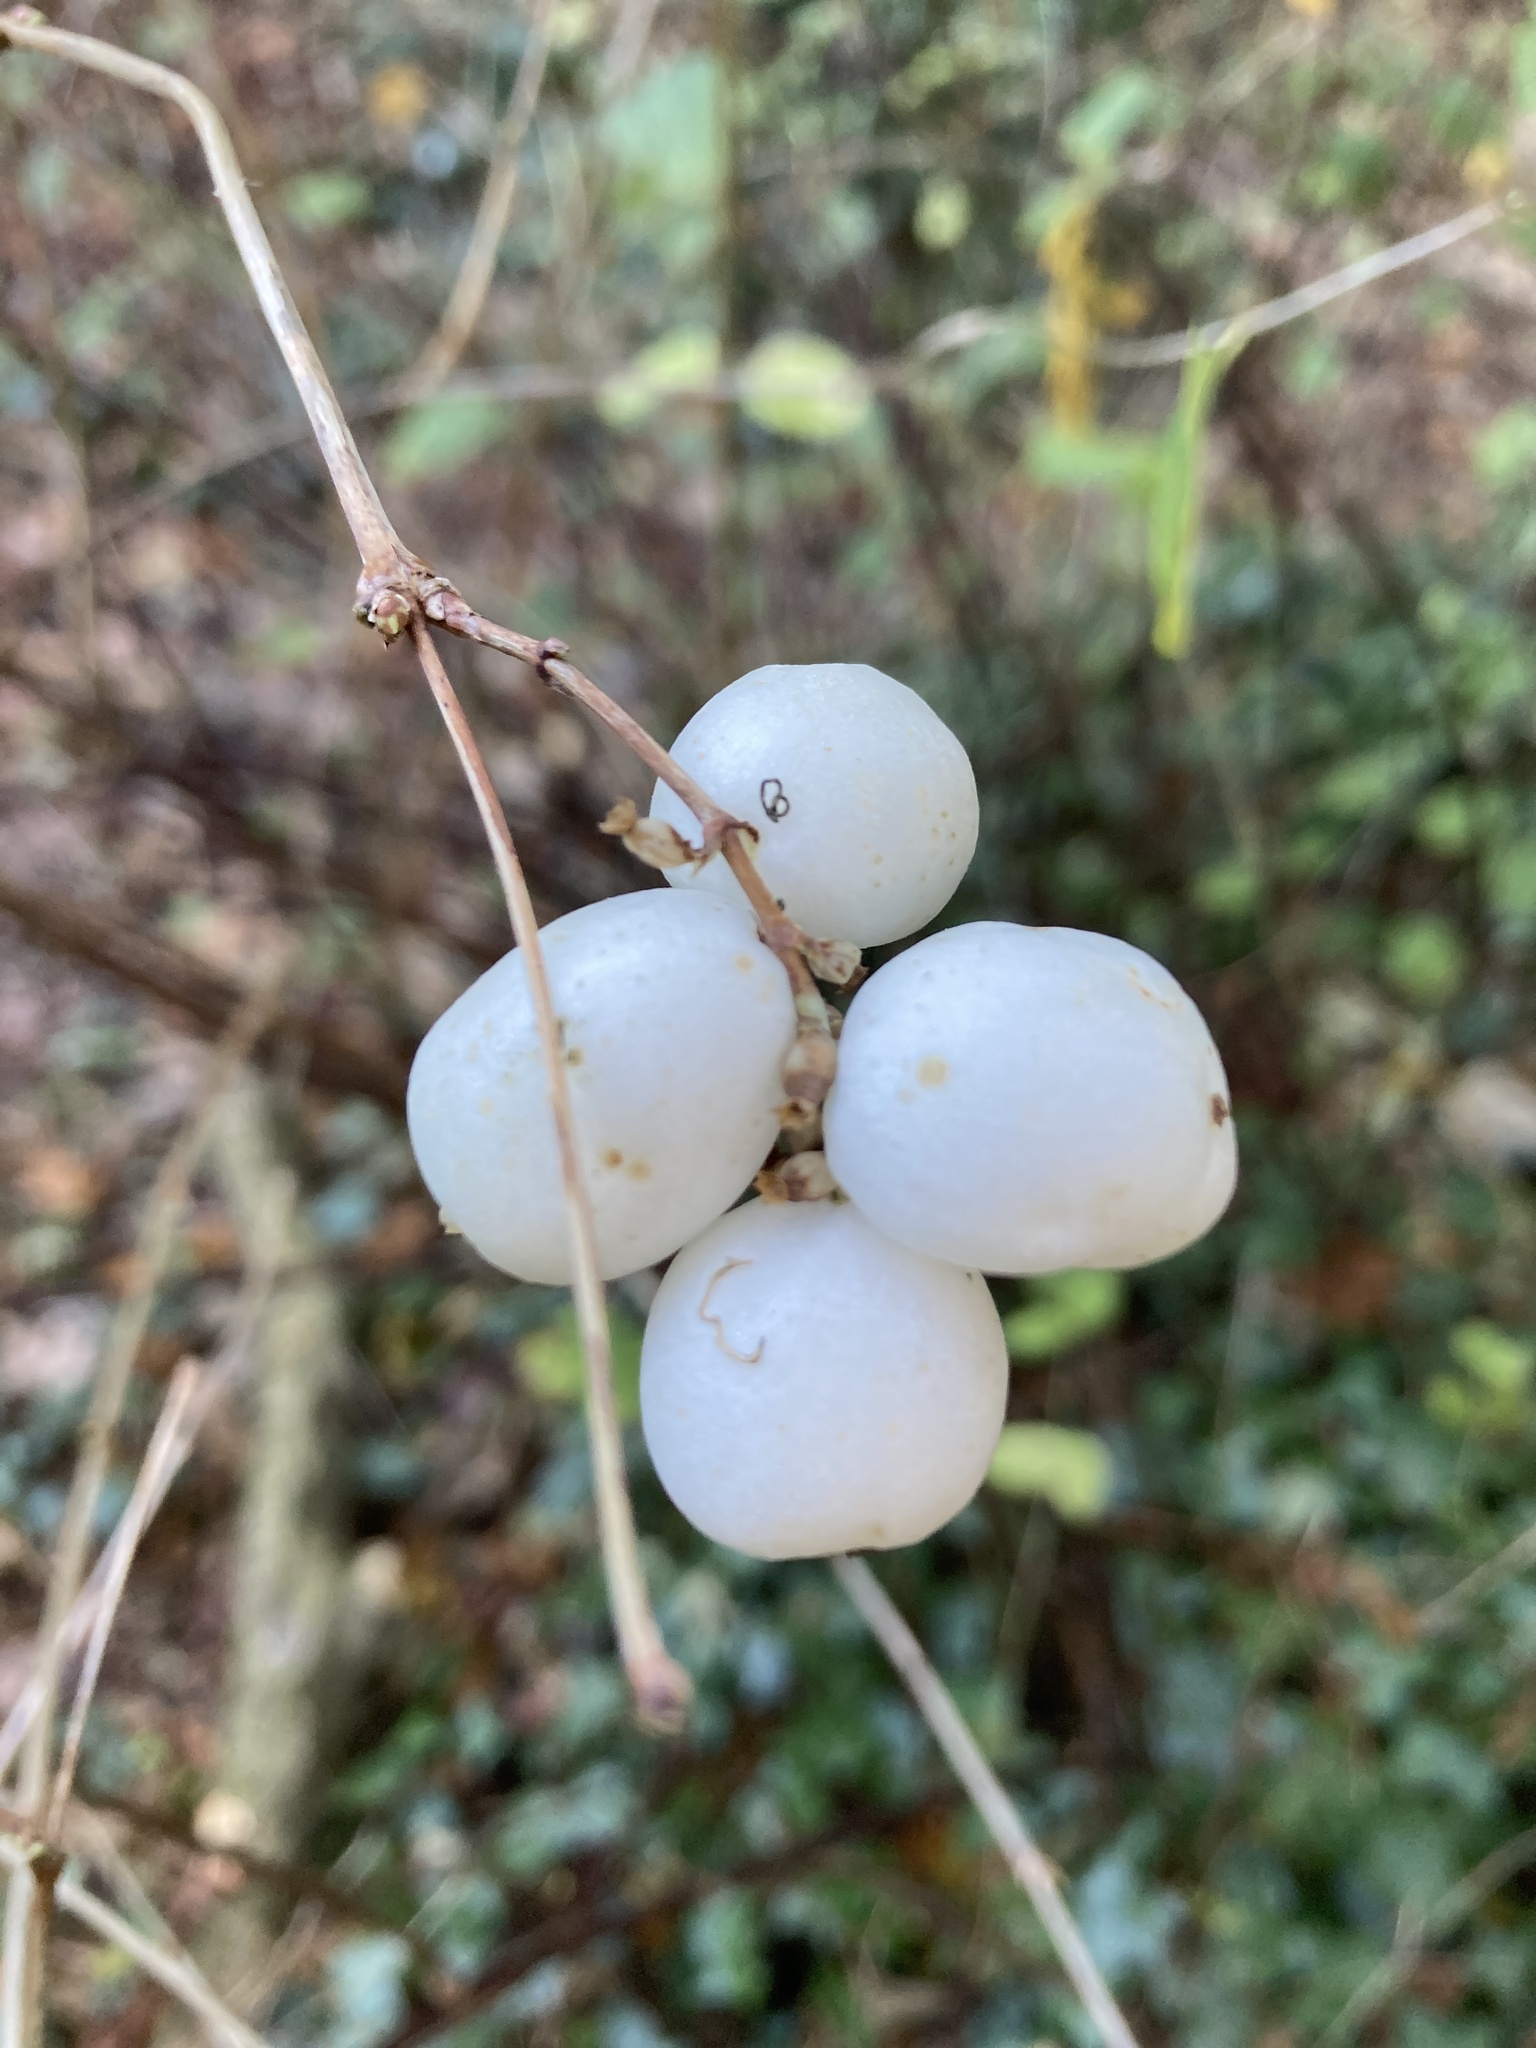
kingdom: Plantae
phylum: Tracheophyta
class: Magnoliopsida
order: Dipsacales
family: Caprifoliaceae
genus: Symphoricarpos
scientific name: Symphoricarpos albus
